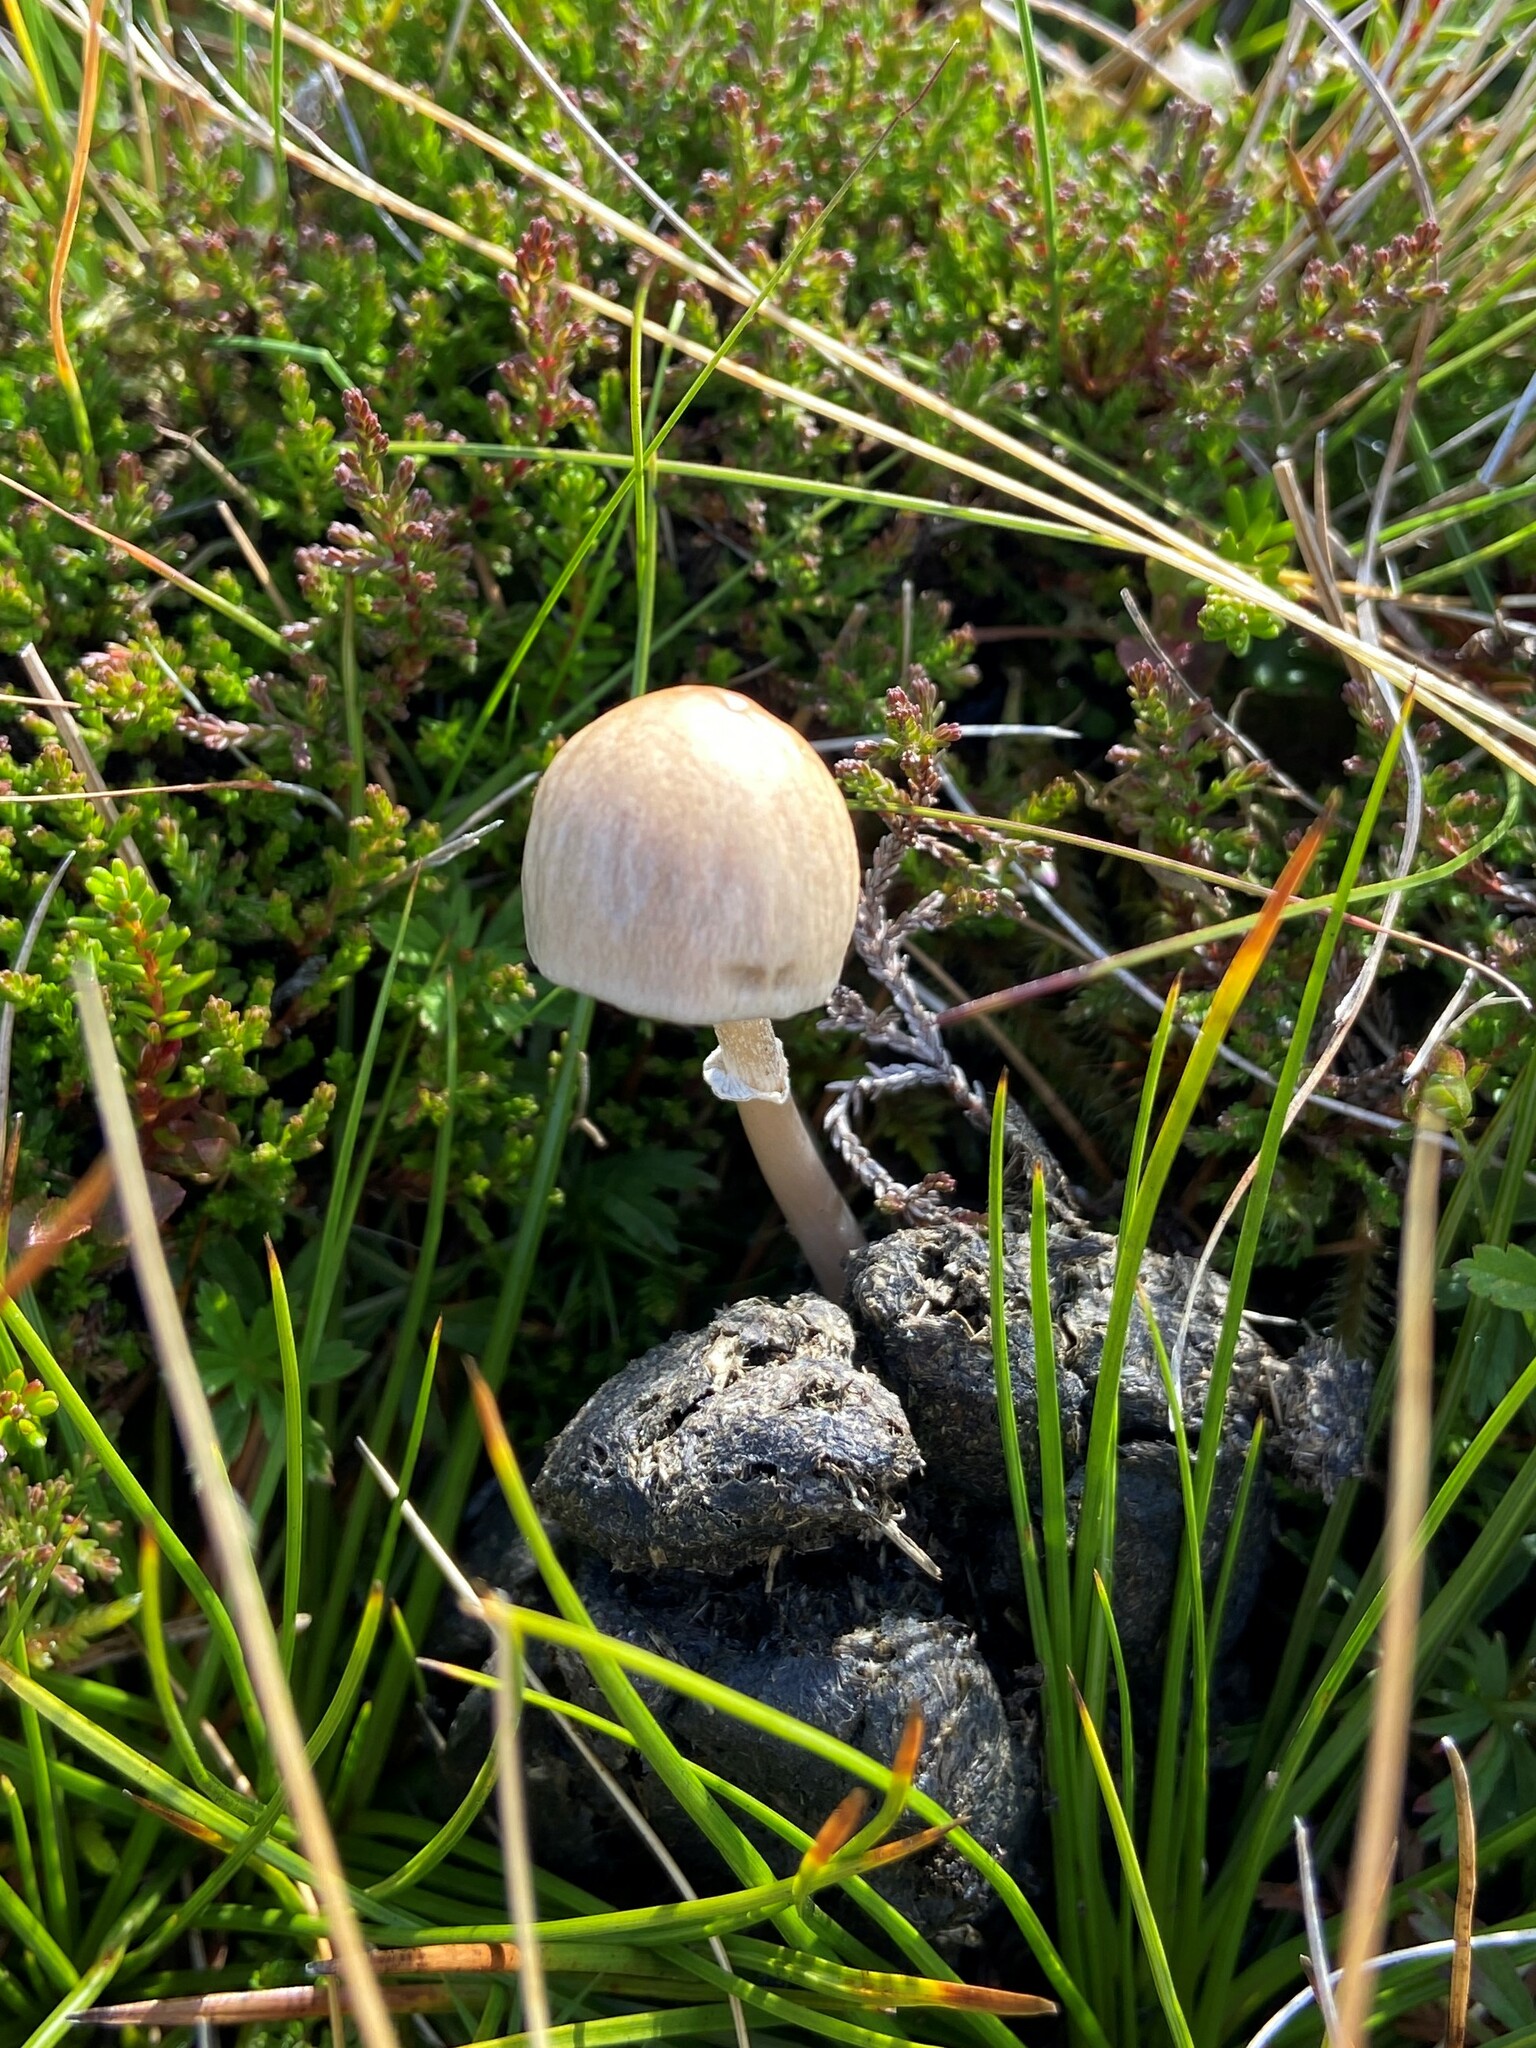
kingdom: Fungi
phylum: Basidiomycota
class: Agaricomycetes
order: Agaricales
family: Bolbitiaceae
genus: Panaeolus
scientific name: Panaeolus semiovatus
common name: Shiny mottlegill
